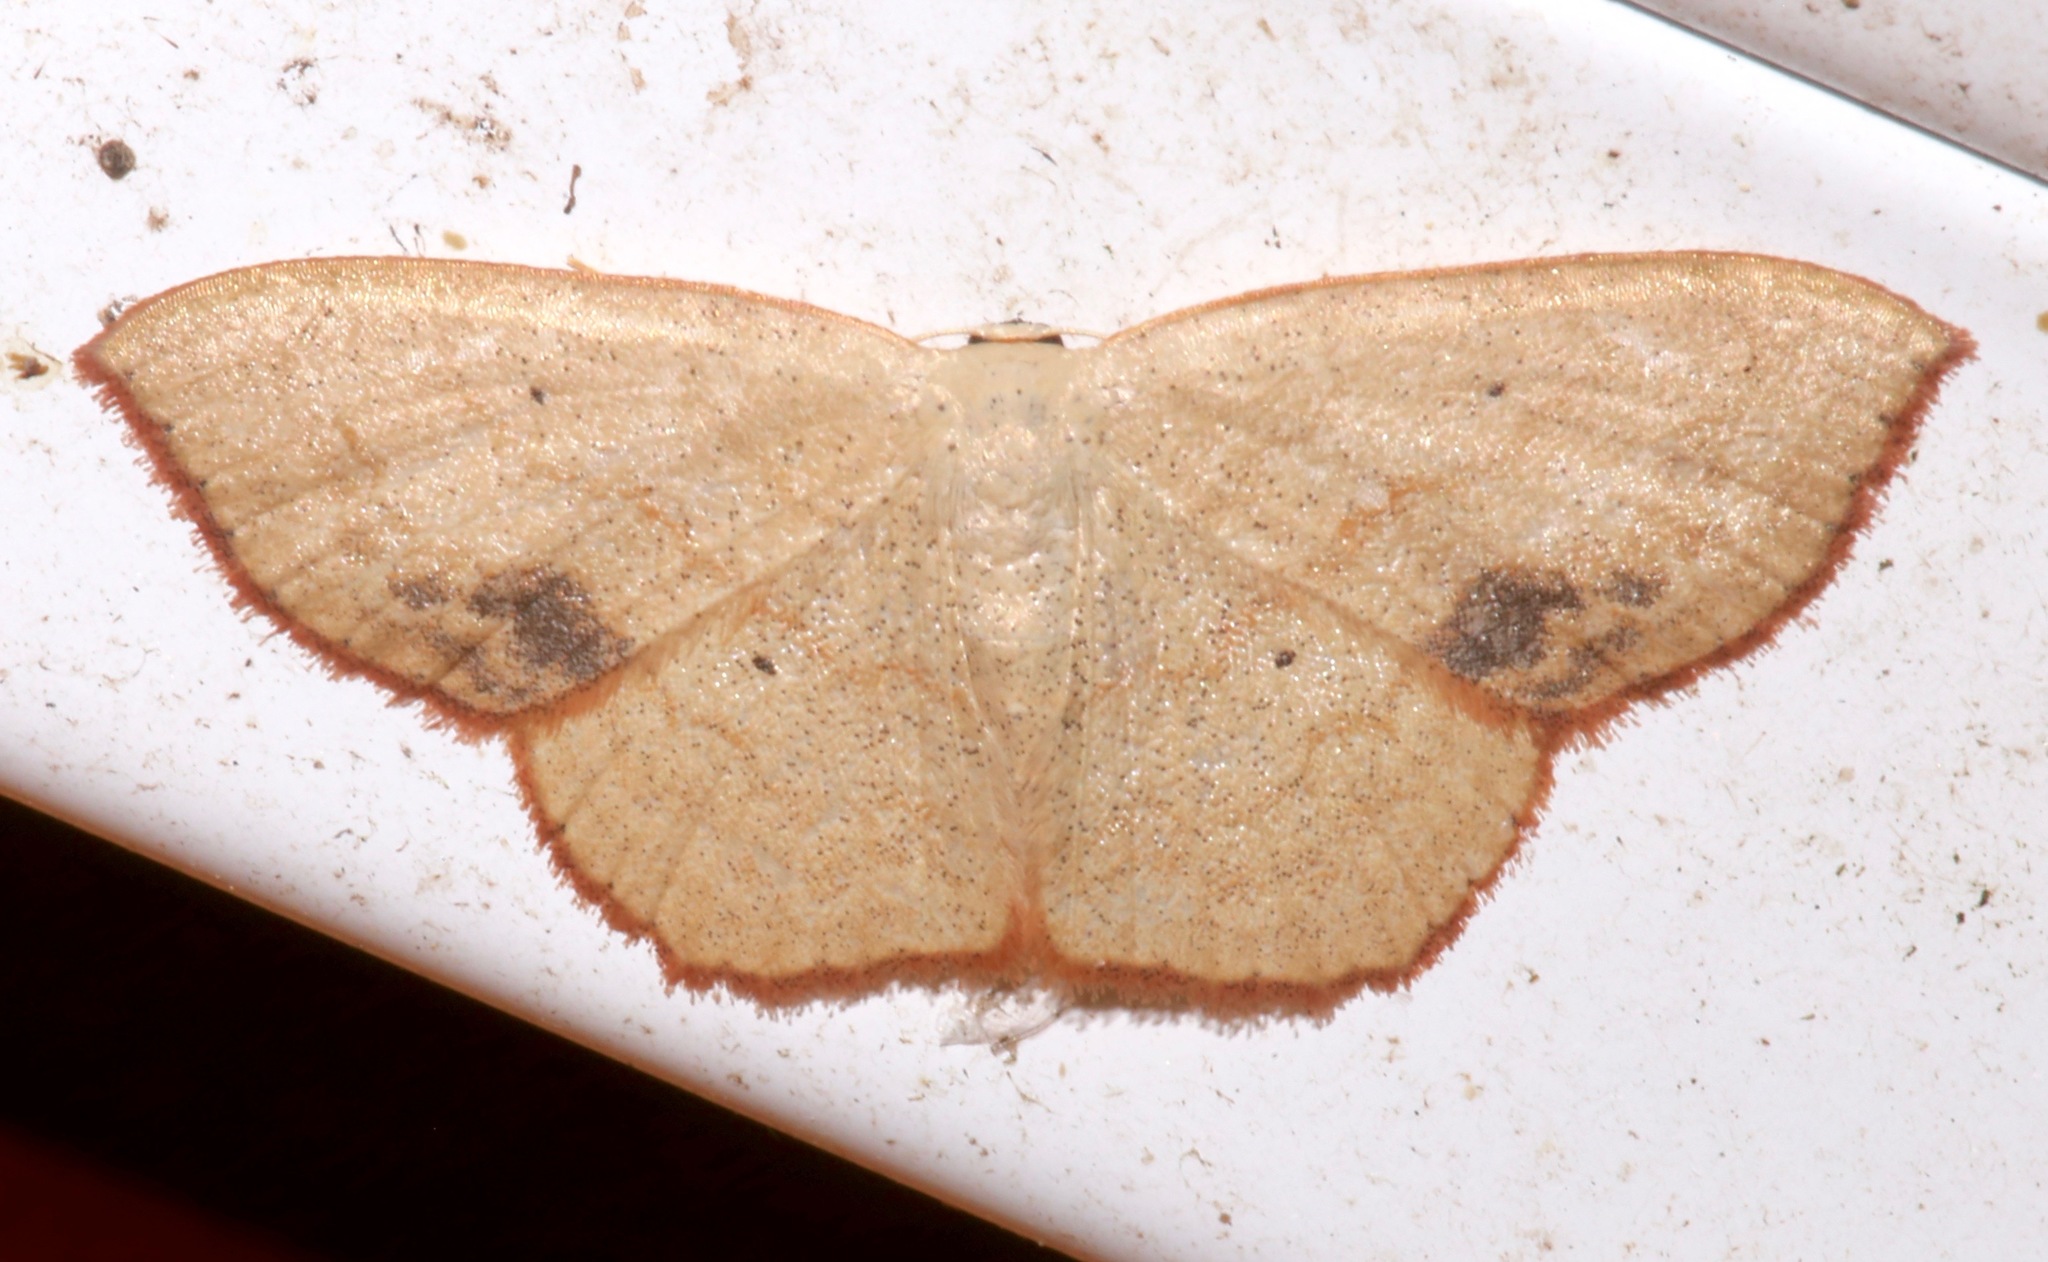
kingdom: Animalia
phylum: Arthropoda
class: Insecta
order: Lepidoptera
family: Geometridae
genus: Scopula
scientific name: Scopula timandrata
